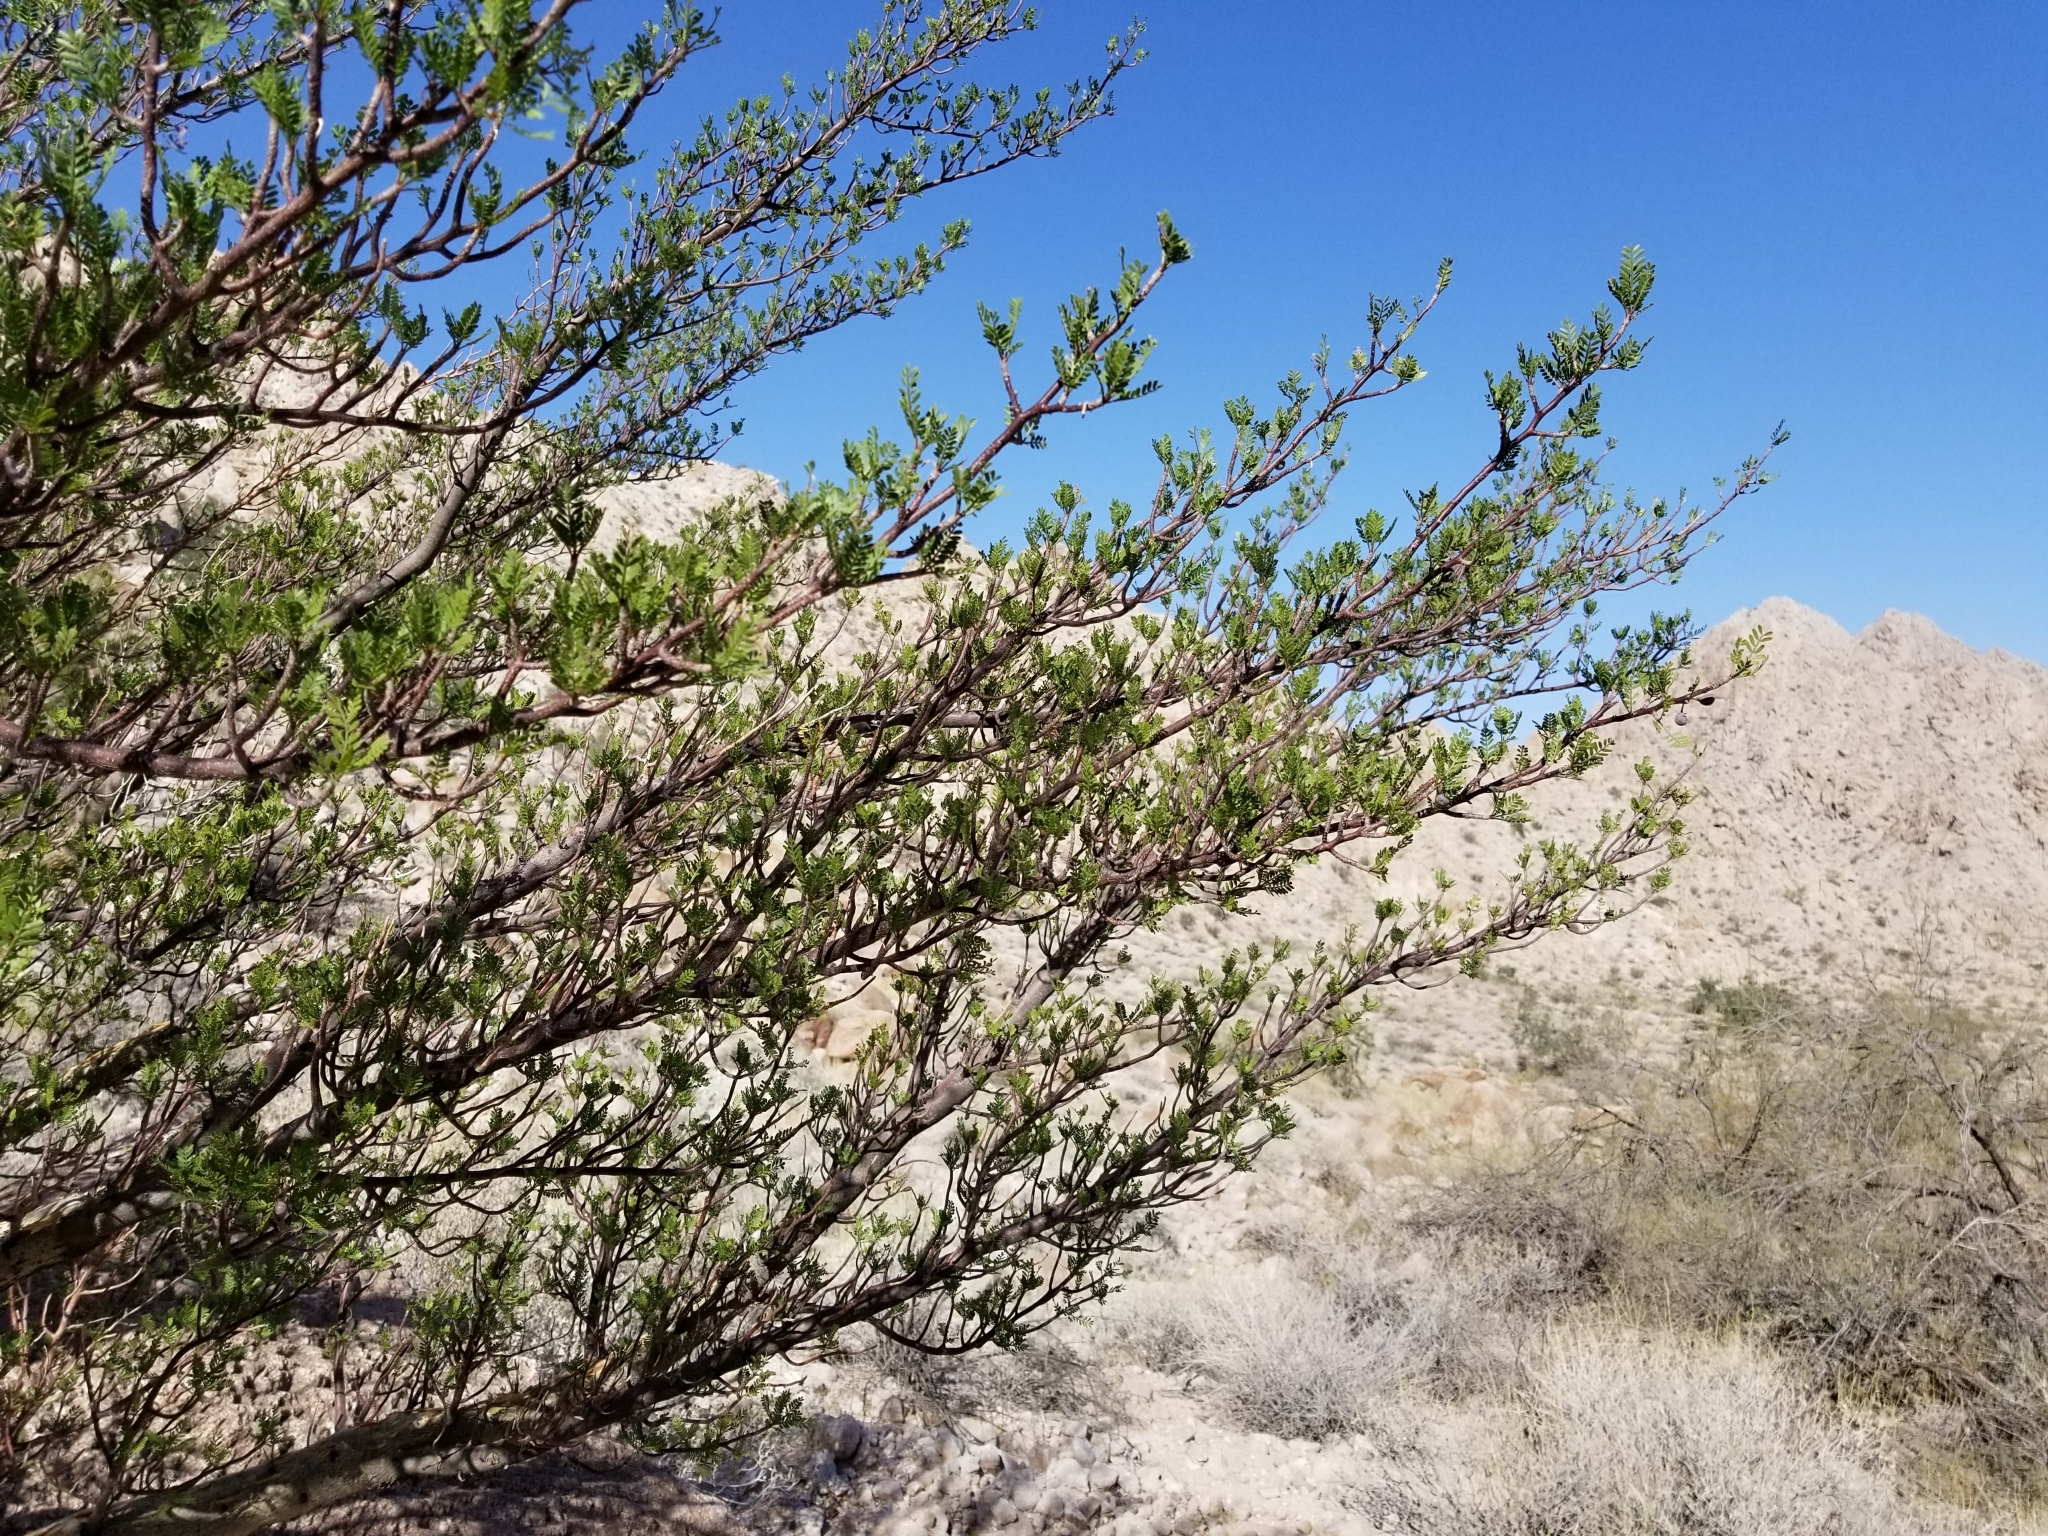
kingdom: Plantae
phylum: Tracheophyta
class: Magnoliopsida
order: Sapindales
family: Burseraceae
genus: Bursera
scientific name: Bursera microphylla
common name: Elephant tree
